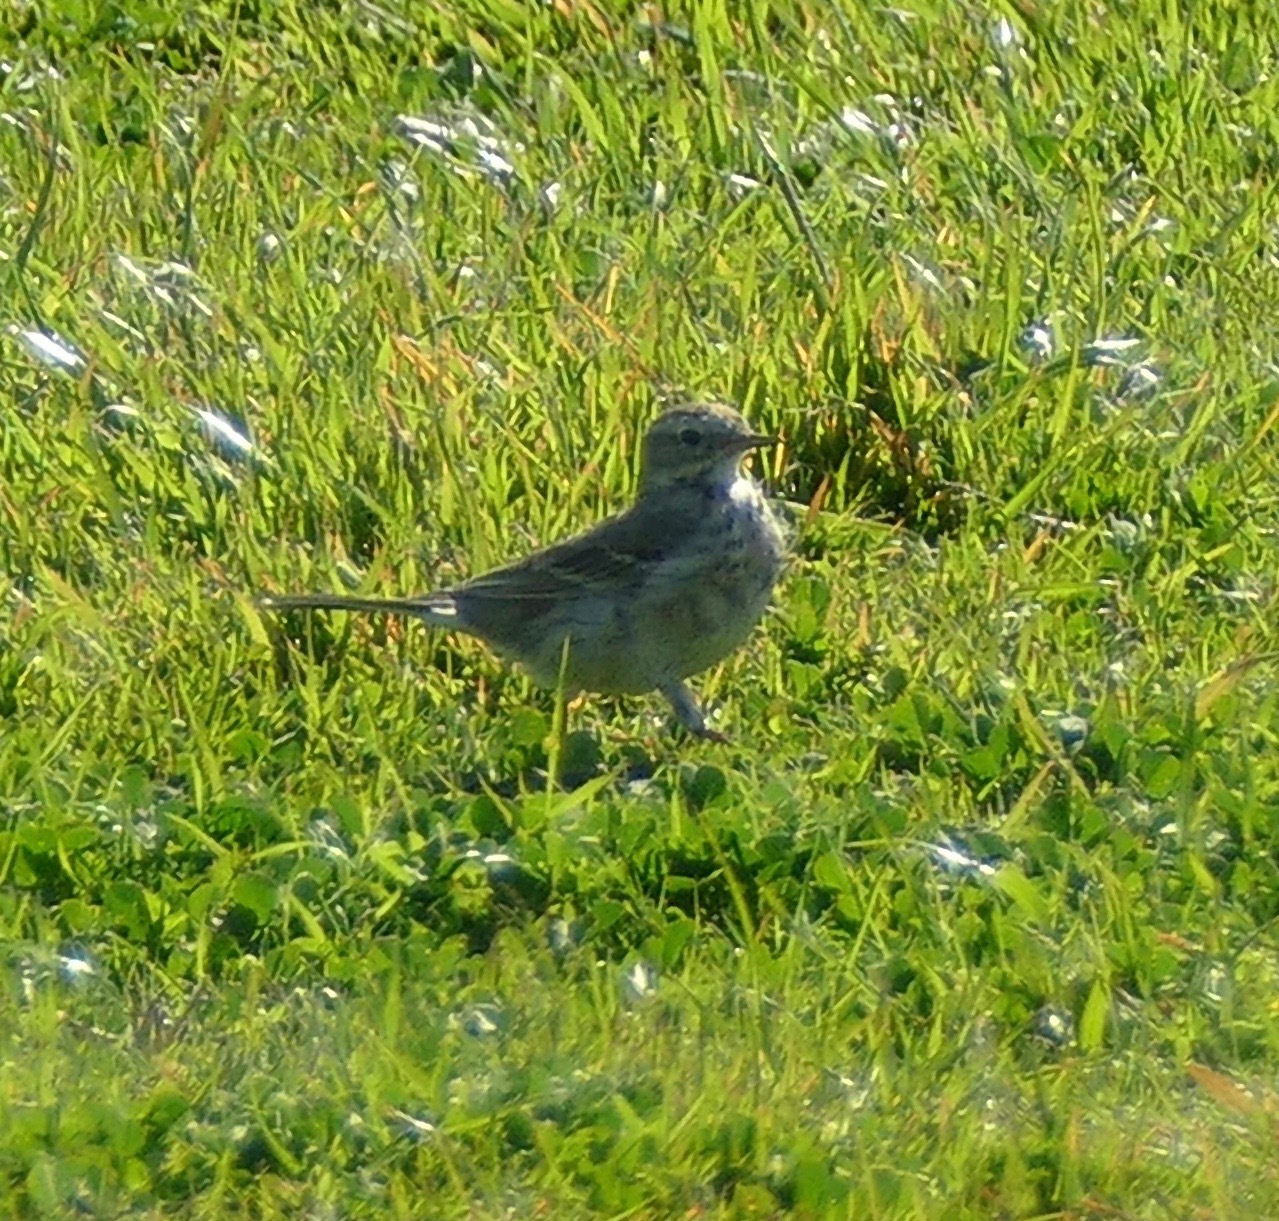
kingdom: Animalia
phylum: Chordata
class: Aves
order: Passeriformes
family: Motacillidae
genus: Anthus
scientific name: Anthus rubescens
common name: Buff-bellied pipit
